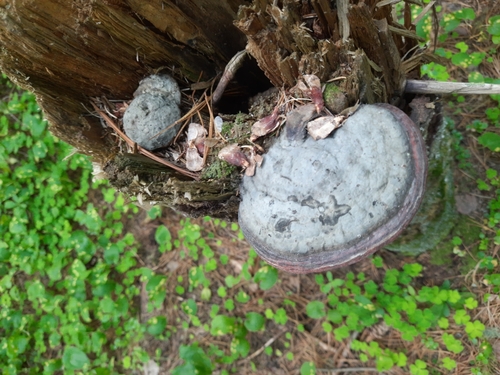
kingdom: Fungi
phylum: Basidiomycota
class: Agaricomycetes
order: Polyporales
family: Fomitopsidaceae
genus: Fomitopsis
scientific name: Fomitopsis pinicola
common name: Red-belted bracket
